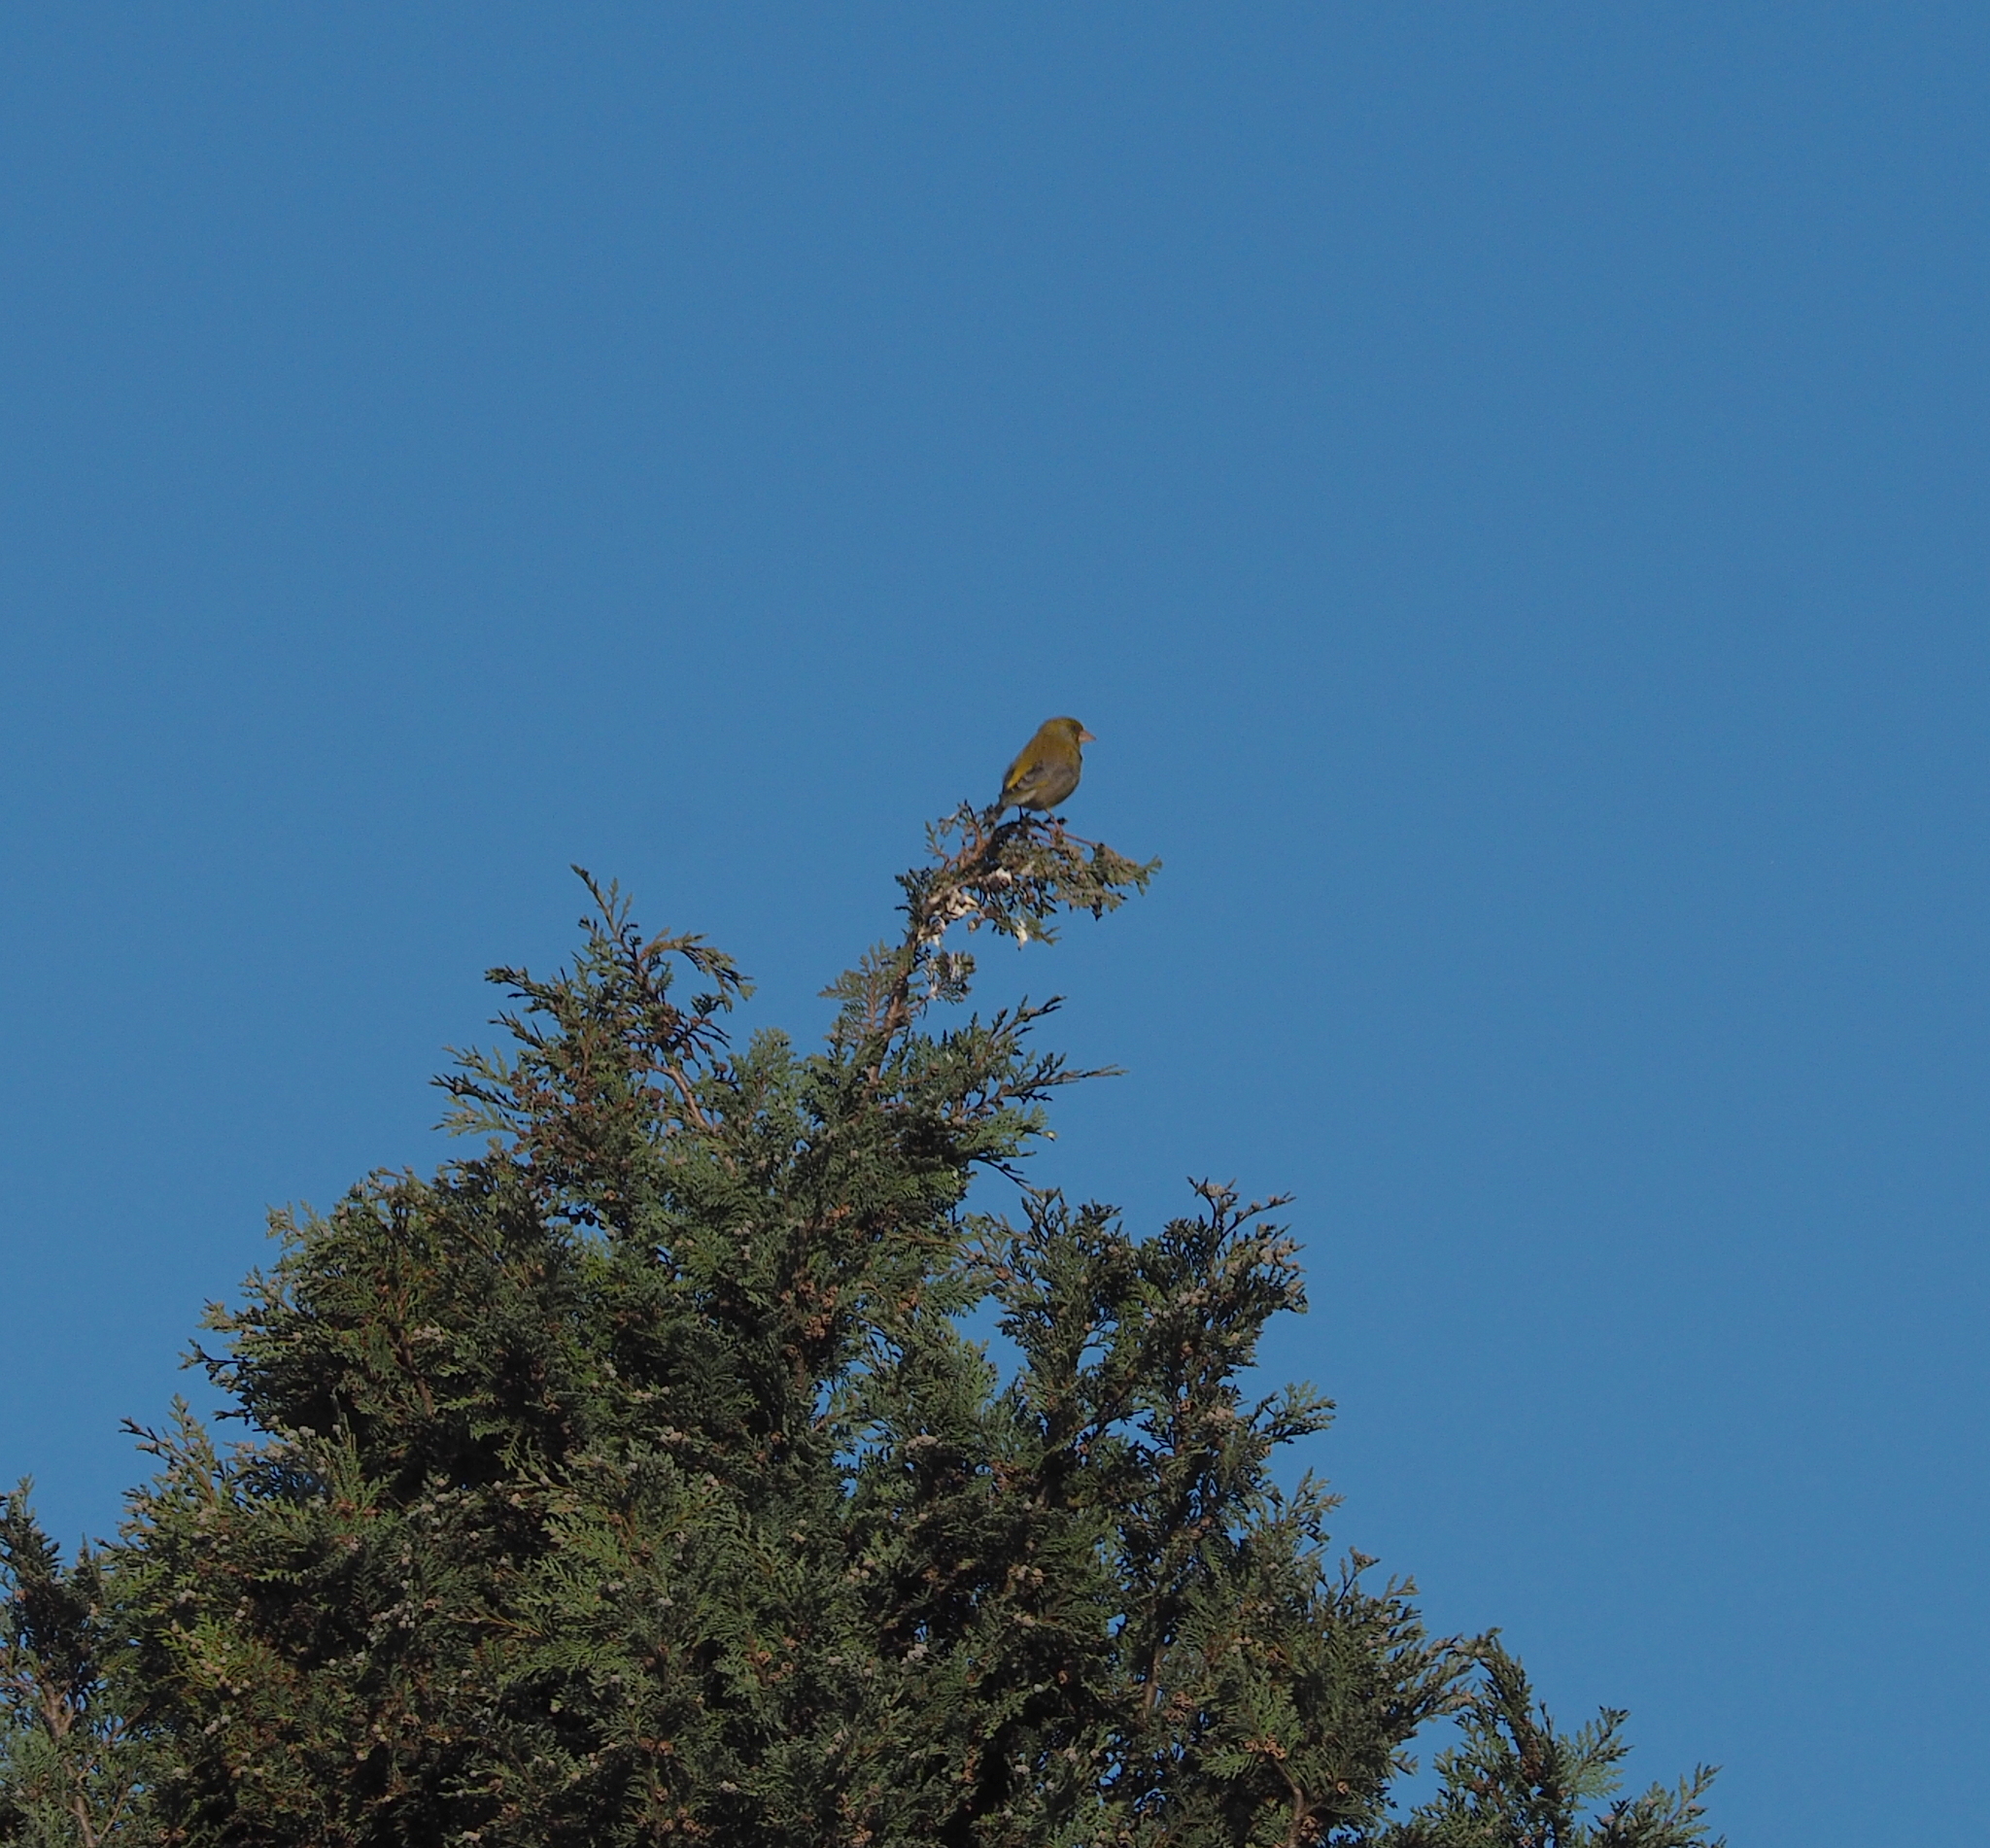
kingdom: Plantae
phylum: Tracheophyta
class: Liliopsida
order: Poales
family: Poaceae
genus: Chloris
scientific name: Chloris chloris
